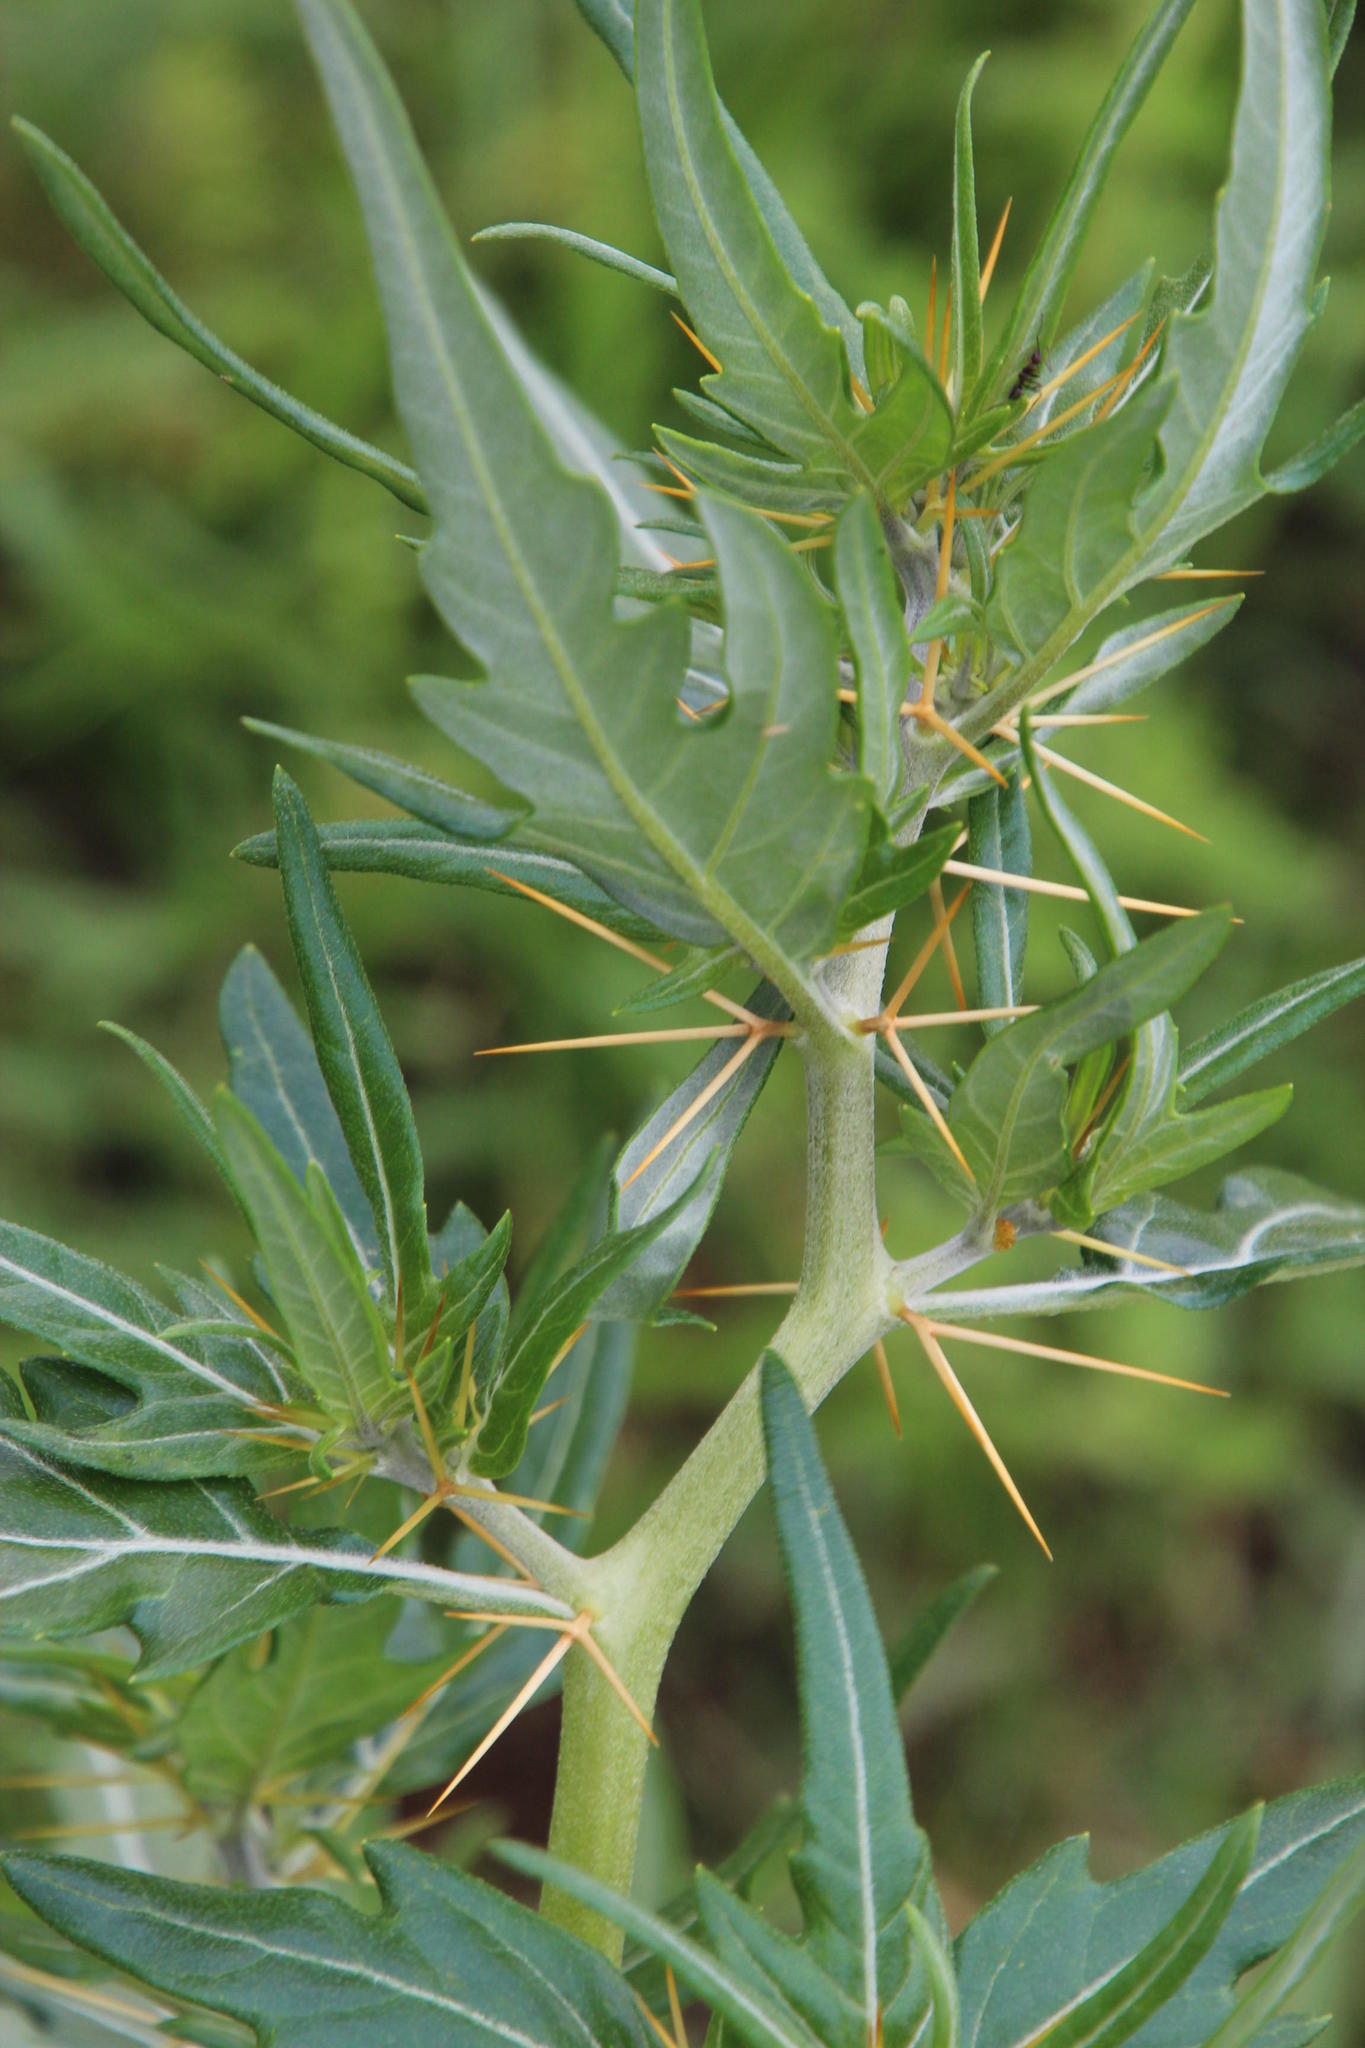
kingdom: Plantae
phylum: Tracheophyta
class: Magnoliopsida
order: Asterales
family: Asteraceae
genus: Xanthium
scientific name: Xanthium spinosum
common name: Spiny cocklebur
